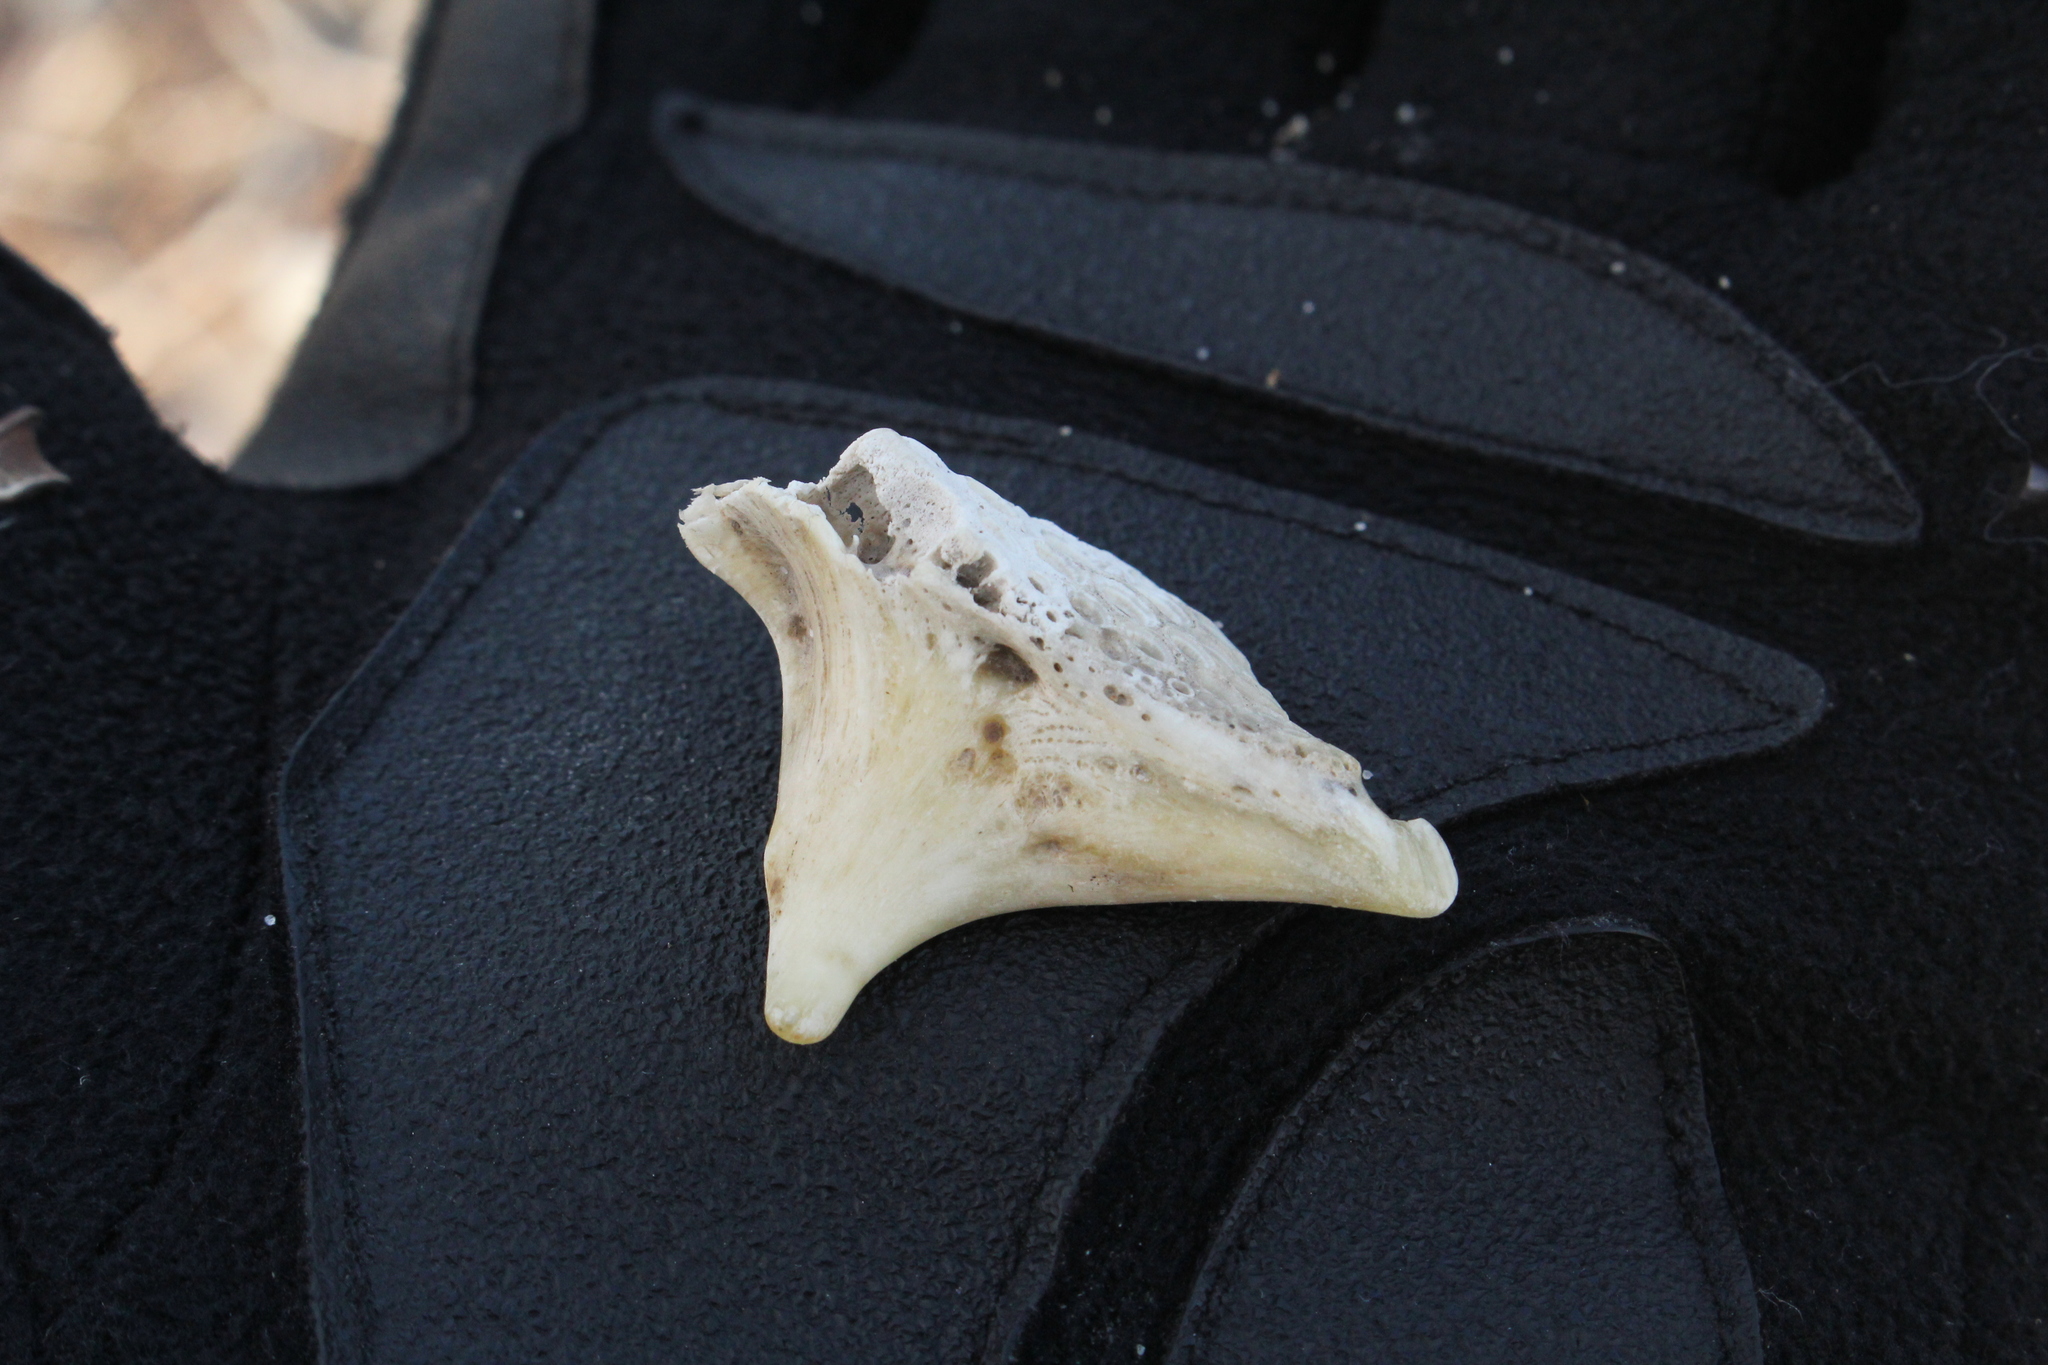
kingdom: Animalia
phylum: Chordata
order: Perciformes
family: Sciaenidae
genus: Aplodinotus
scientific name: Aplodinotus grunniens
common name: Freshwater drum
